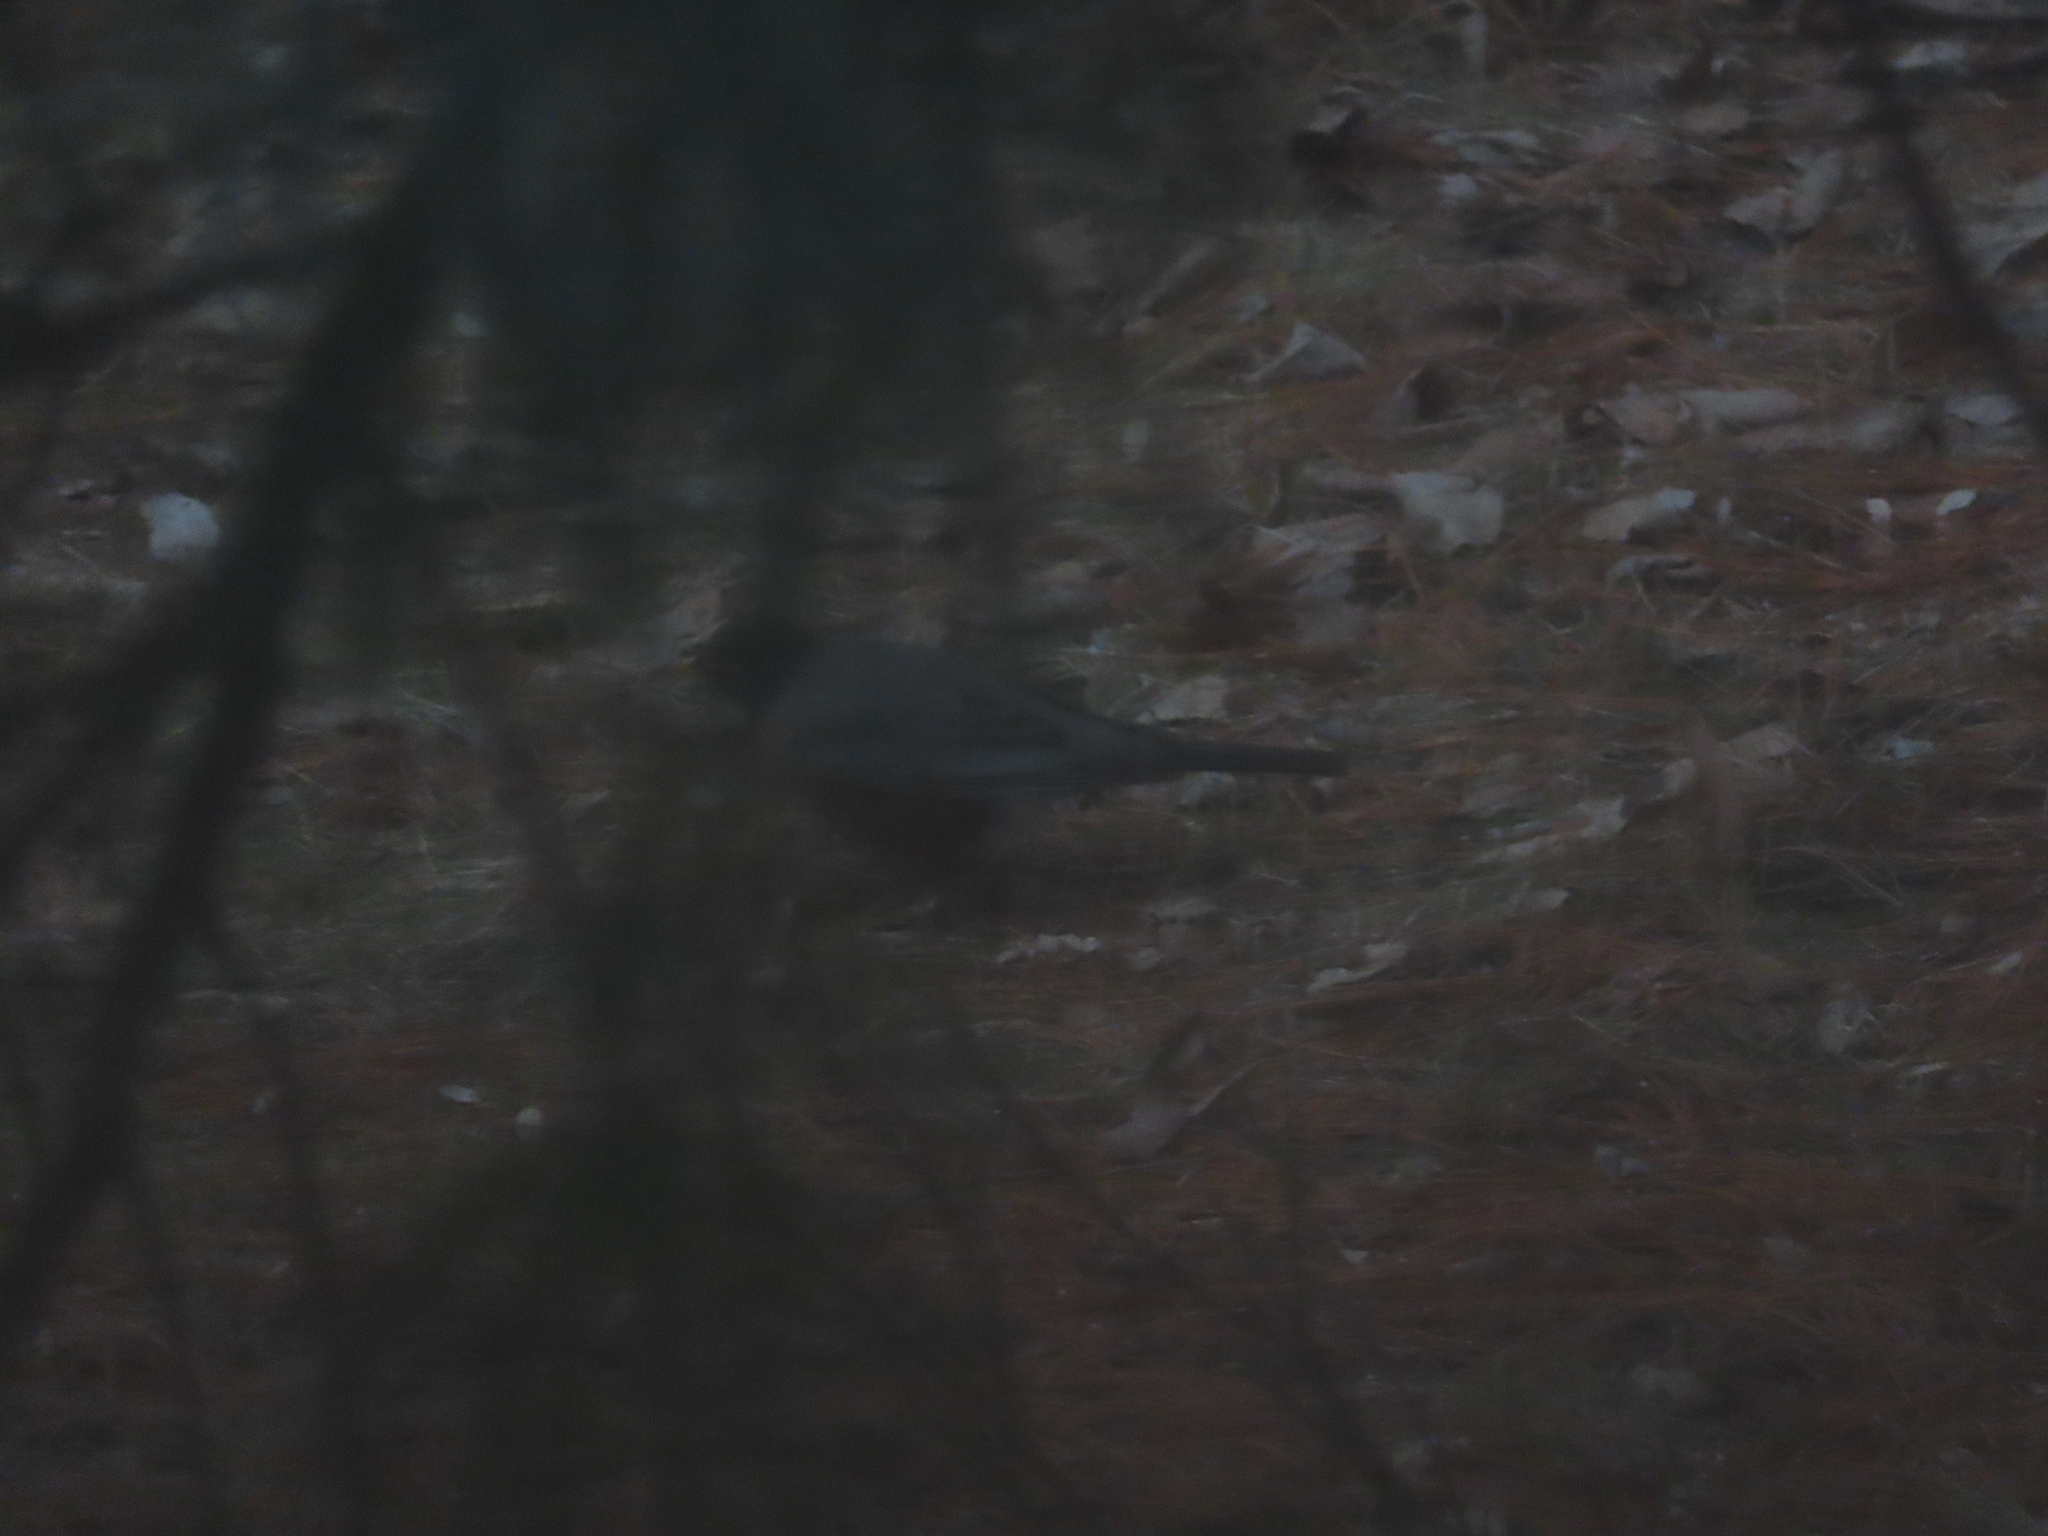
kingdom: Animalia
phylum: Chordata
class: Aves
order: Passeriformes
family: Turdidae
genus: Turdus
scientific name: Turdus migratorius
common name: American robin
